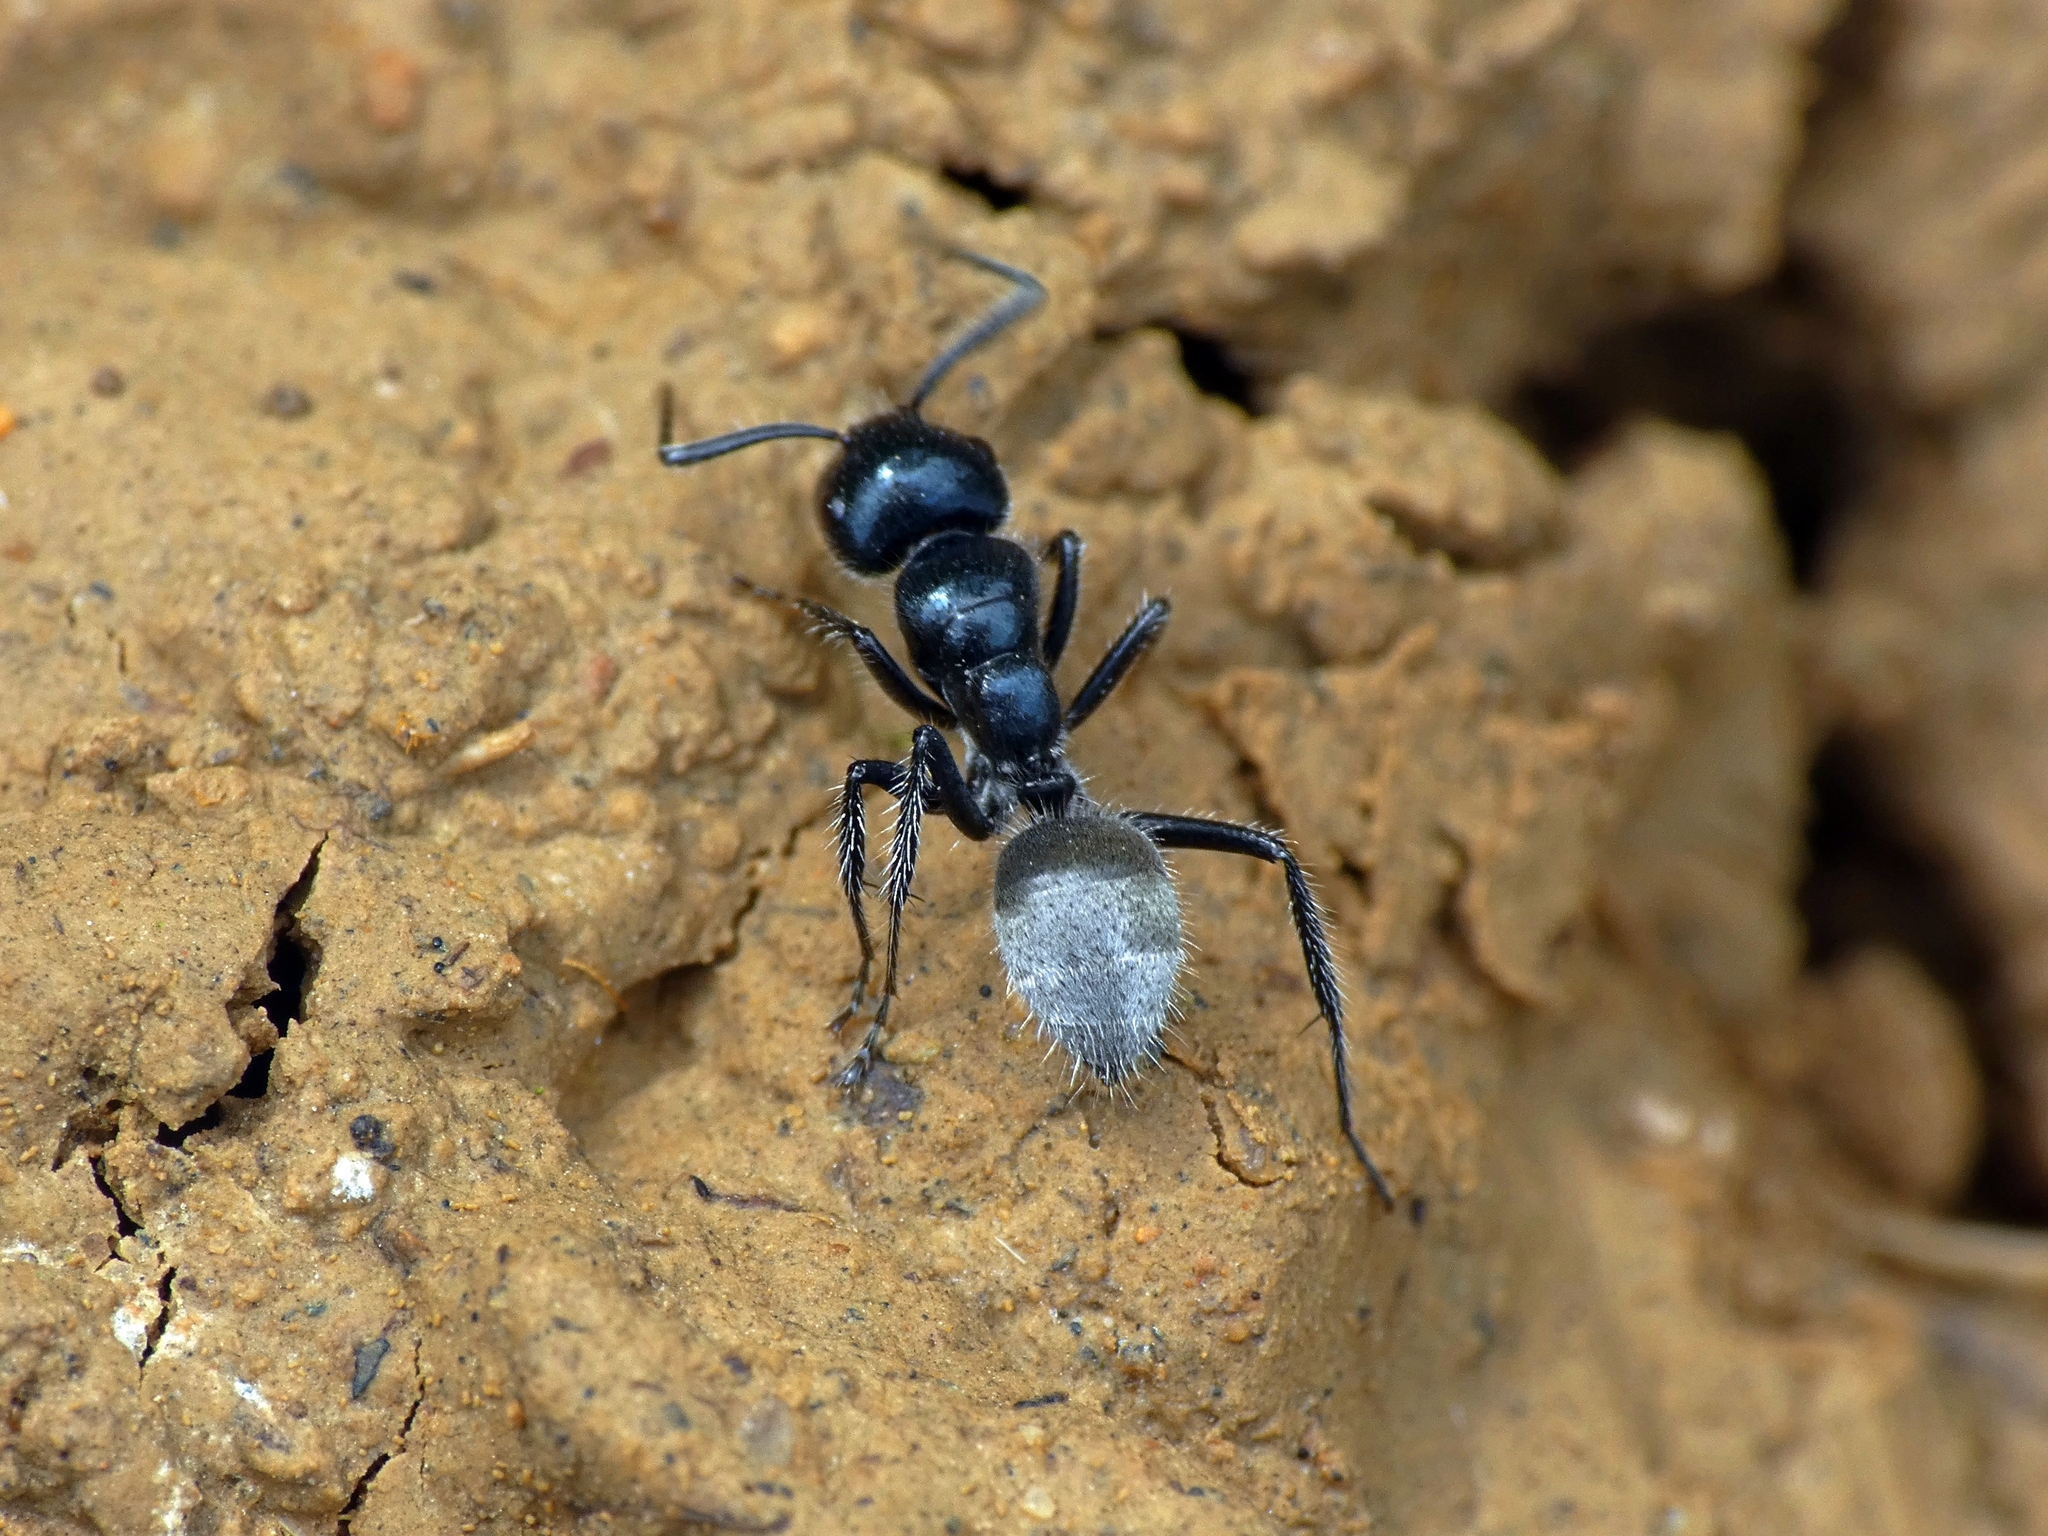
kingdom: Animalia
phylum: Arthropoda
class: Insecta
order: Hymenoptera
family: Formicidae
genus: Calomyrmex
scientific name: Calomyrmex albertisi
